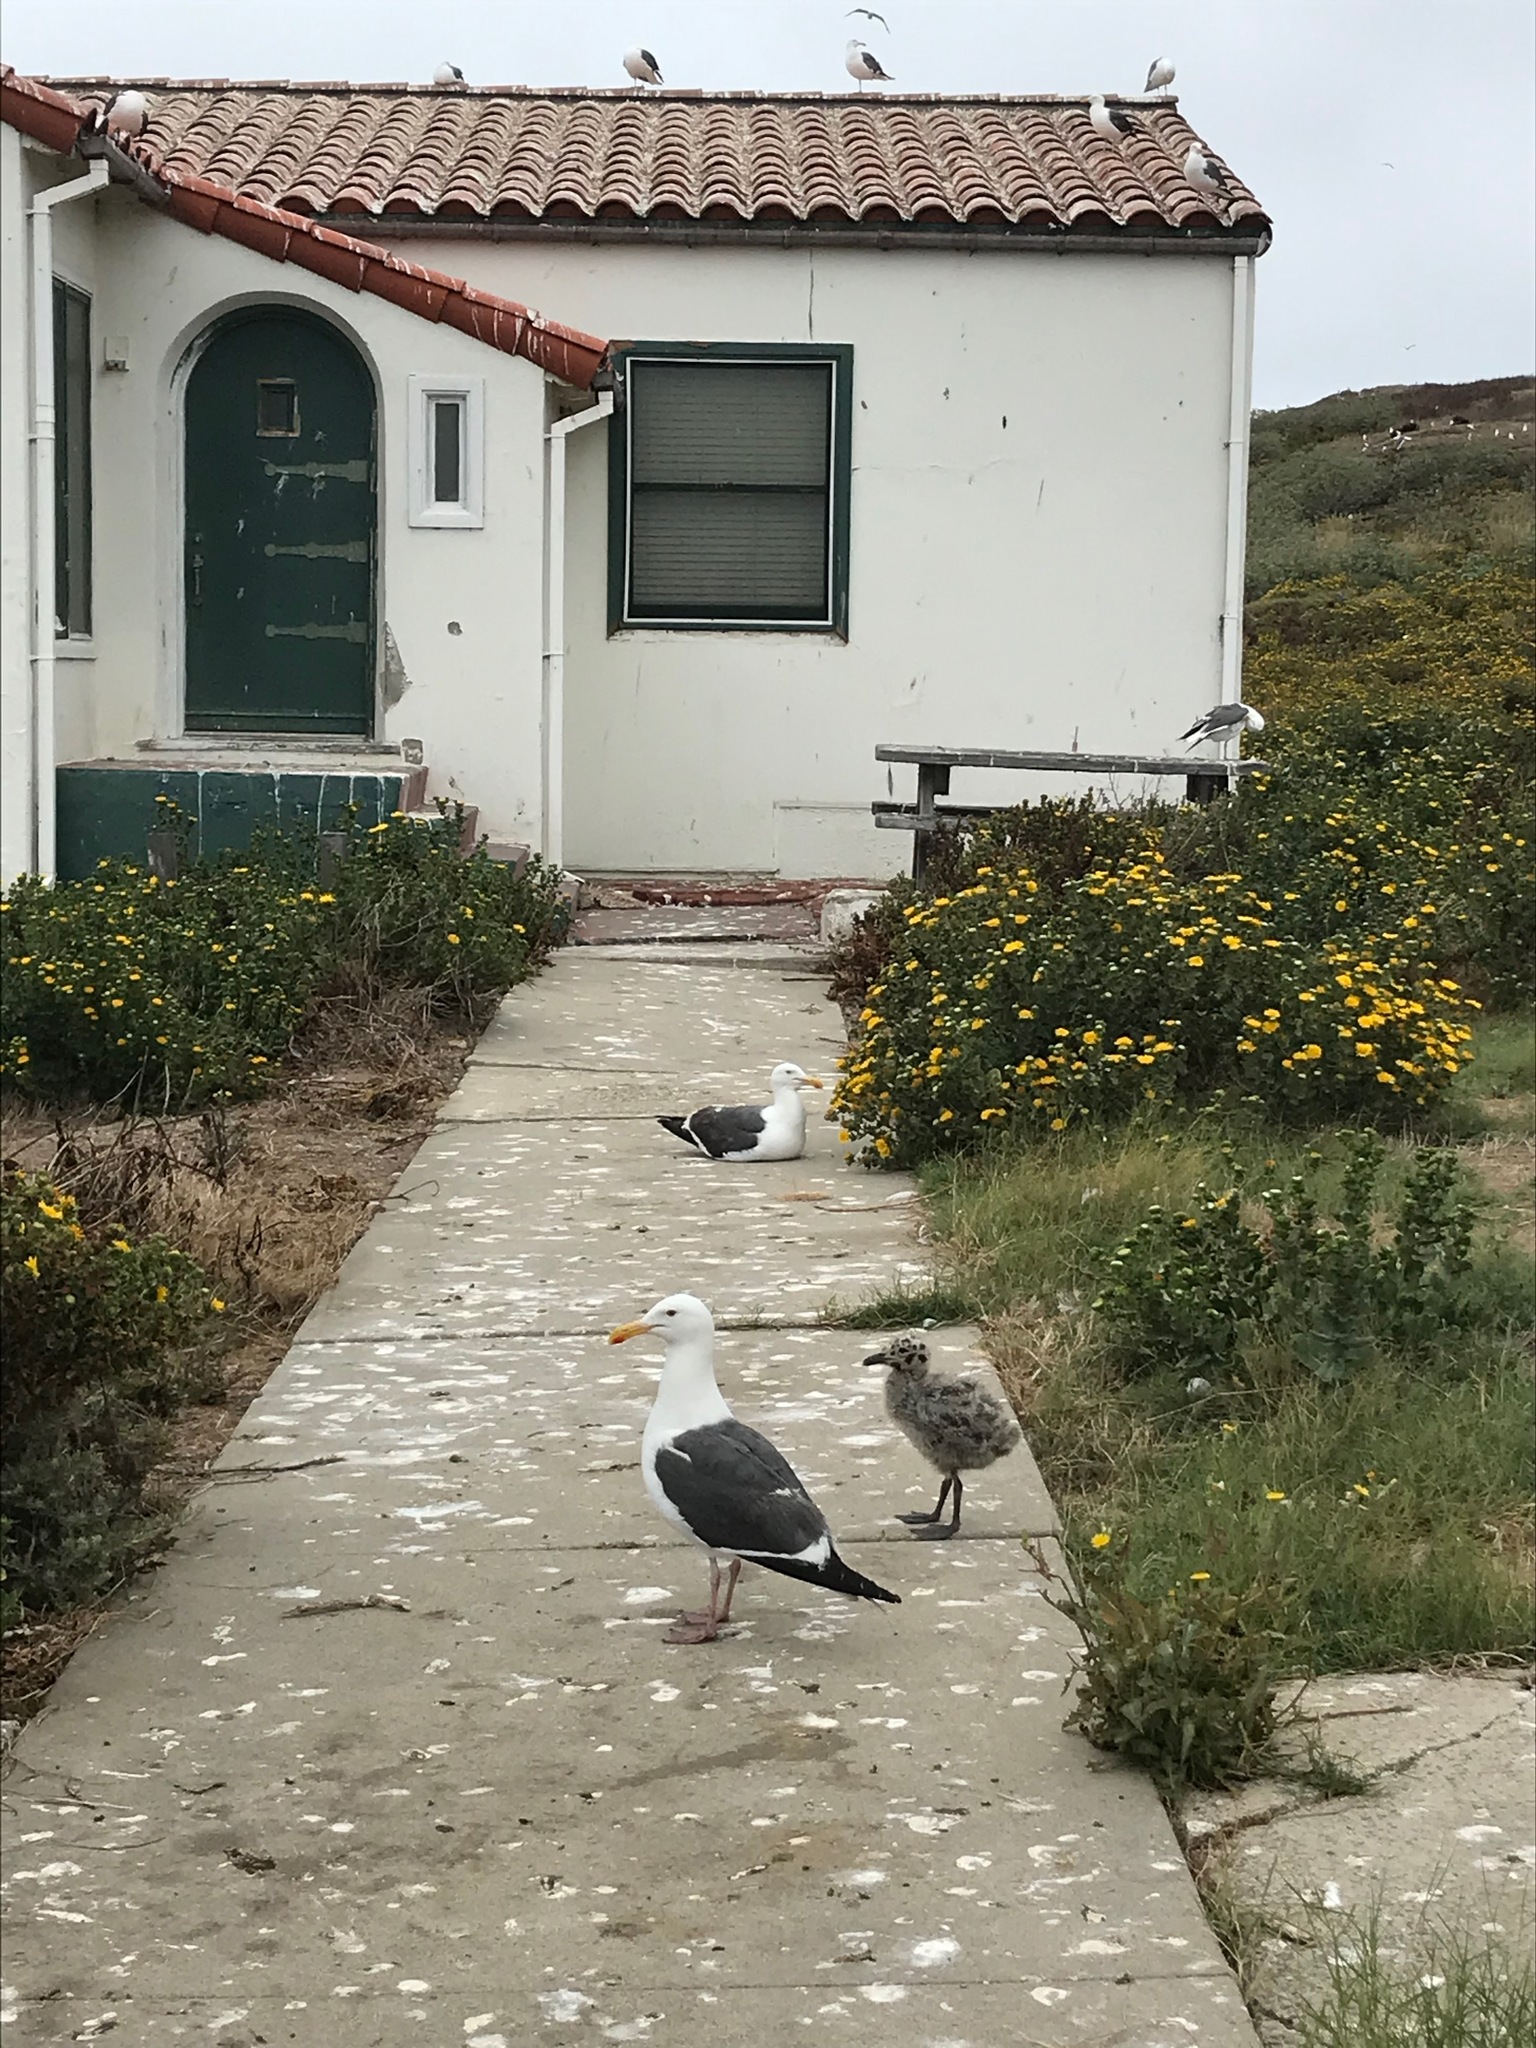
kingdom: Animalia
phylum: Chordata
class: Aves
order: Charadriiformes
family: Laridae
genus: Larus
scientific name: Larus occidentalis
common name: Western gull
